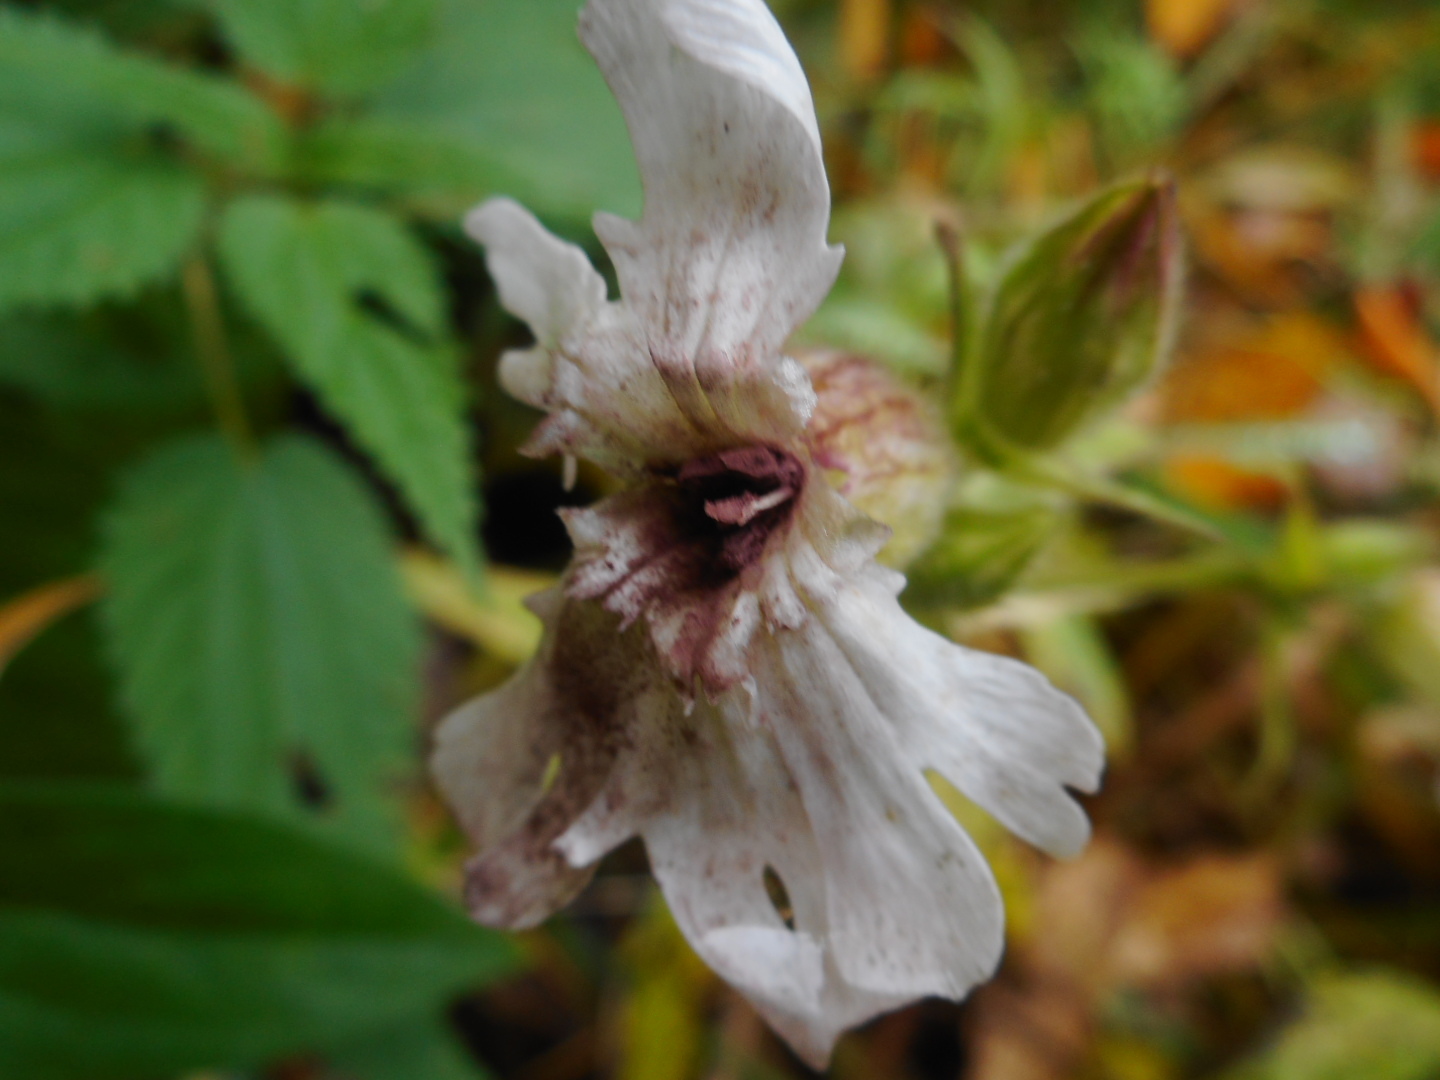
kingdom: Plantae
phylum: Tracheophyta
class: Magnoliopsida
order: Caryophyllales
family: Caryophyllaceae
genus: Silene
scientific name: Silene latifolia
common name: White campion
